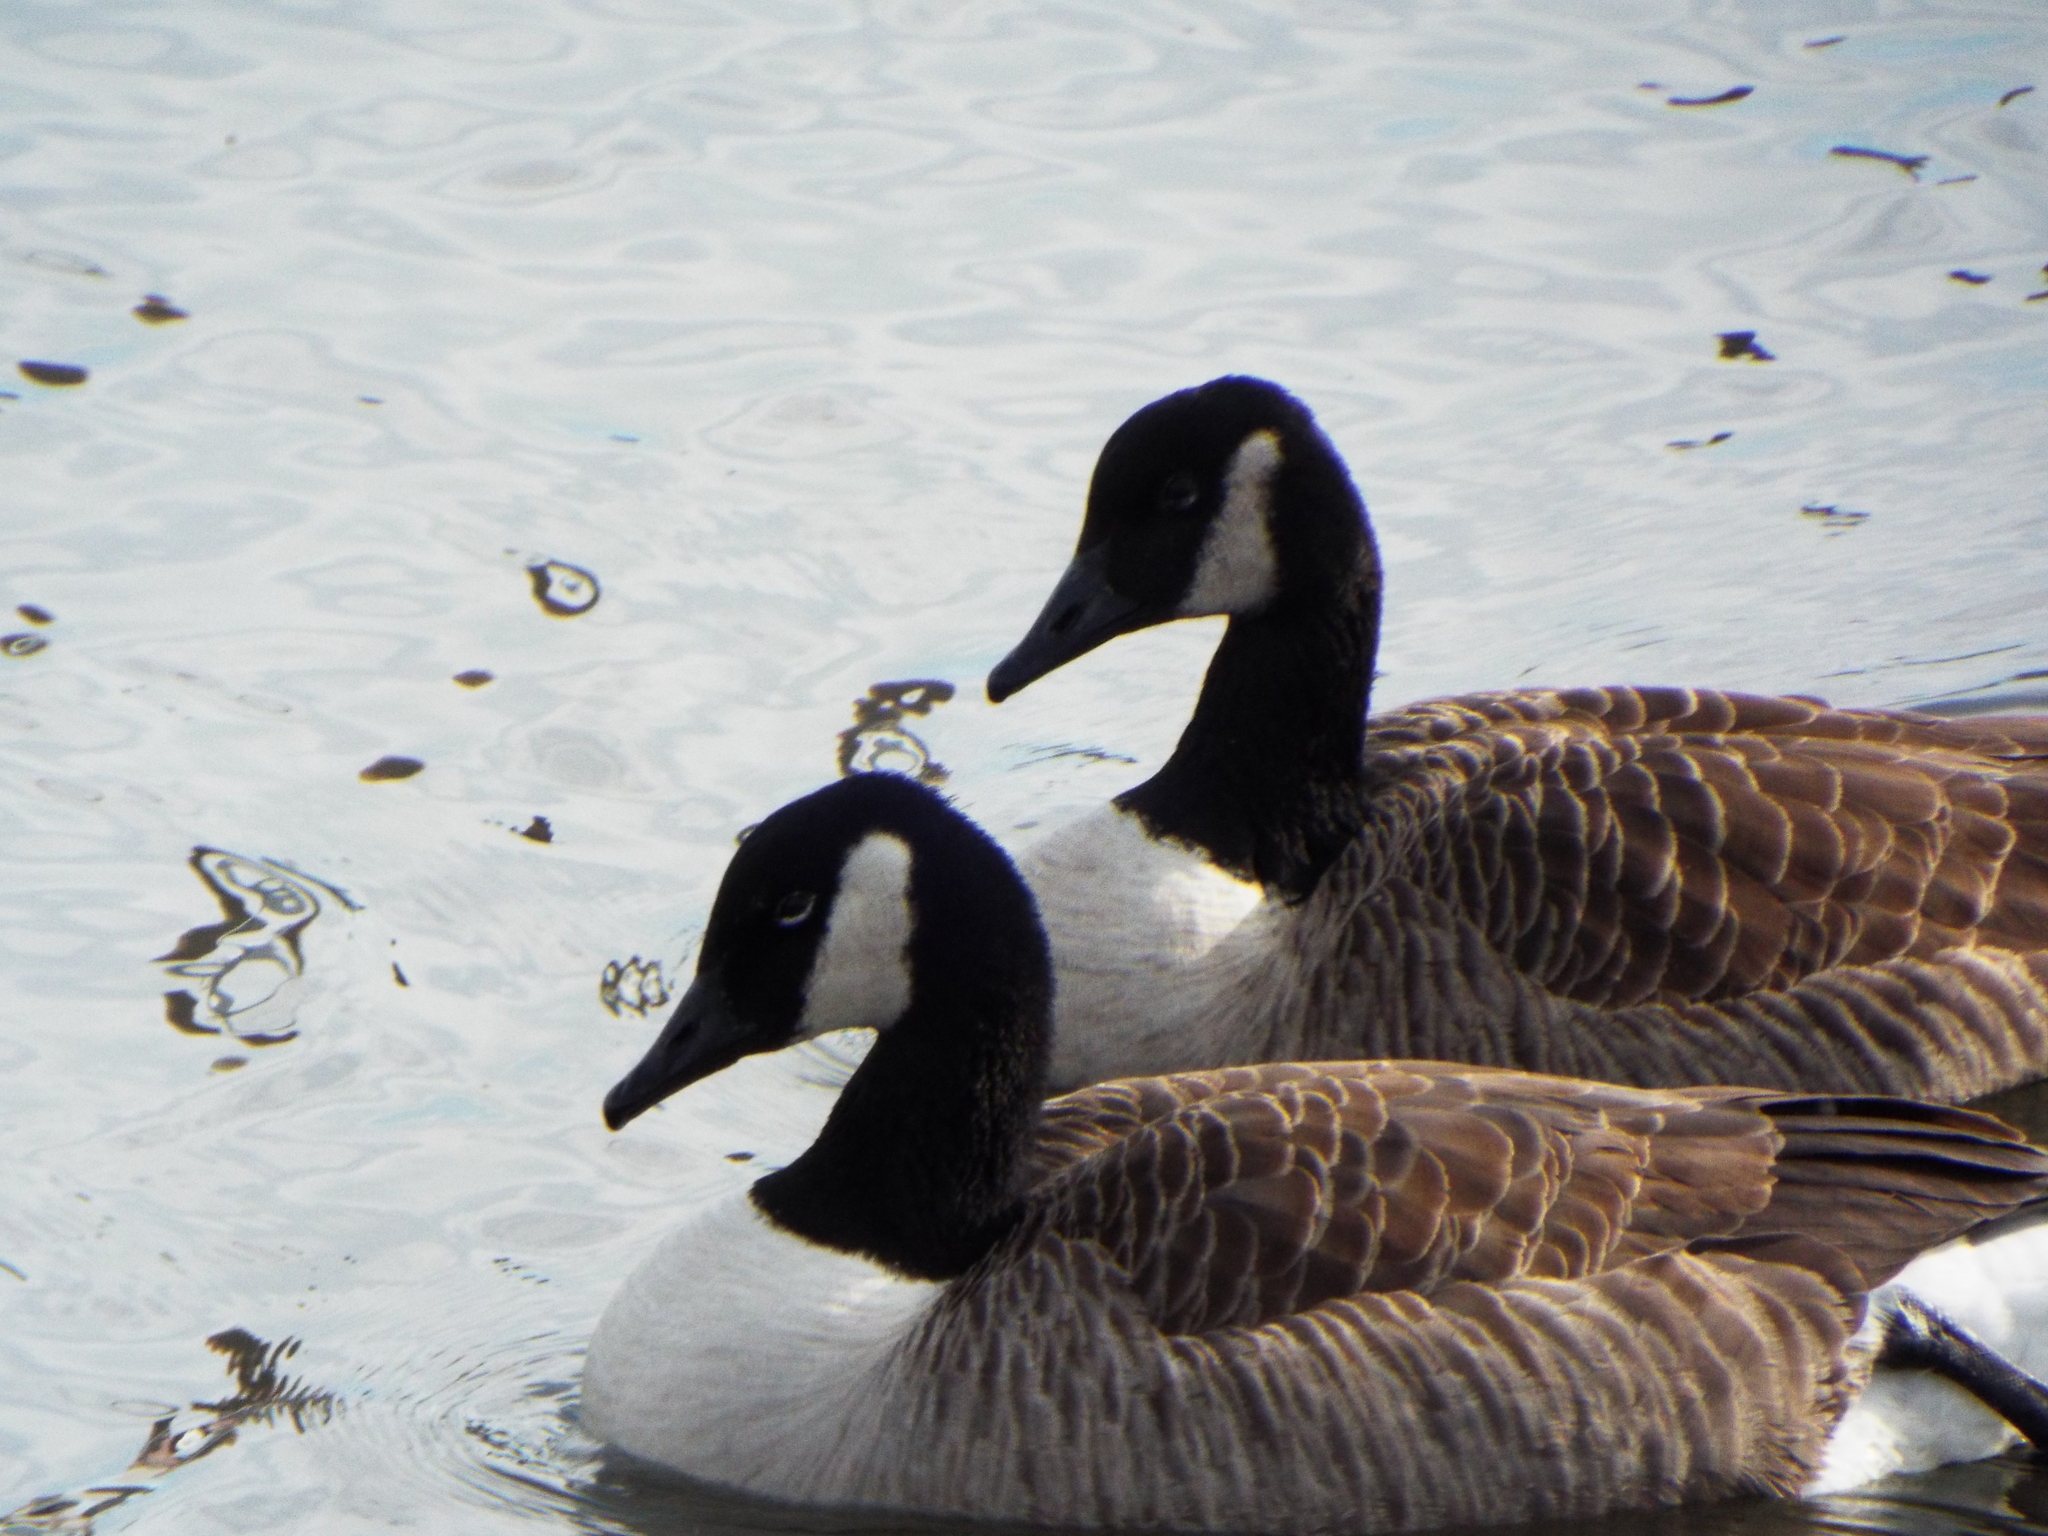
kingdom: Animalia
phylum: Chordata
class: Aves
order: Anseriformes
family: Anatidae
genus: Branta
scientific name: Branta canadensis
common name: Canada goose
